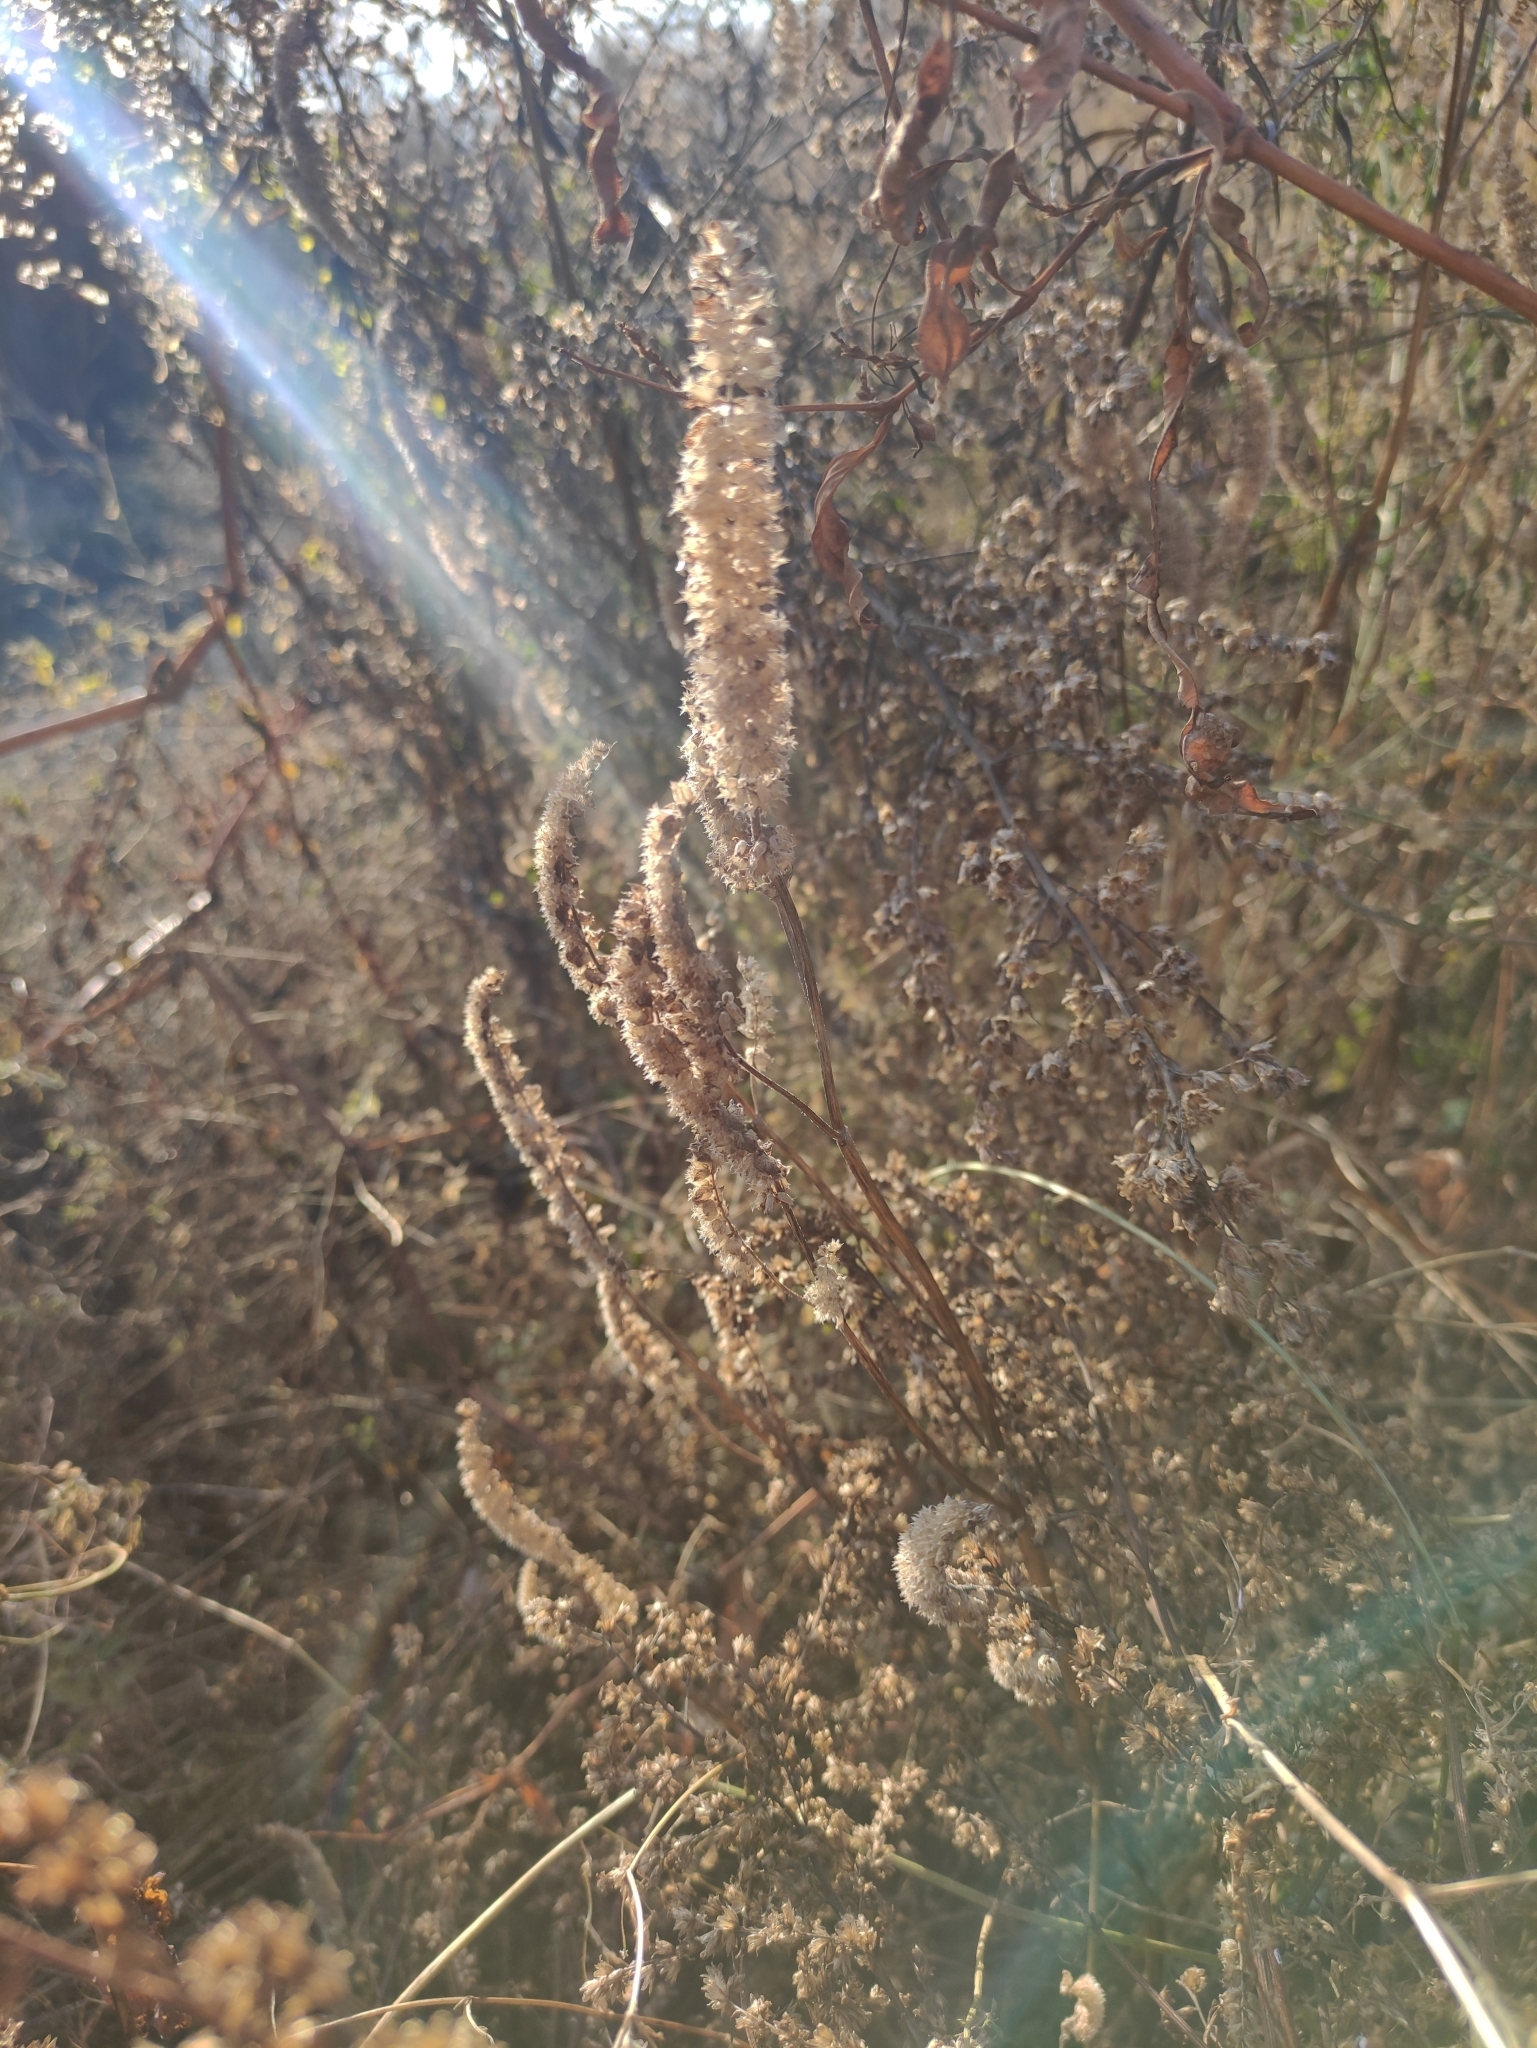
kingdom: Plantae
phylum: Tracheophyta
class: Magnoliopsida
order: Lamiales
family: Lamiaceae
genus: Elsholtzia
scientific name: Elsholtzia ciliata
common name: Ciliate elsholtzia
